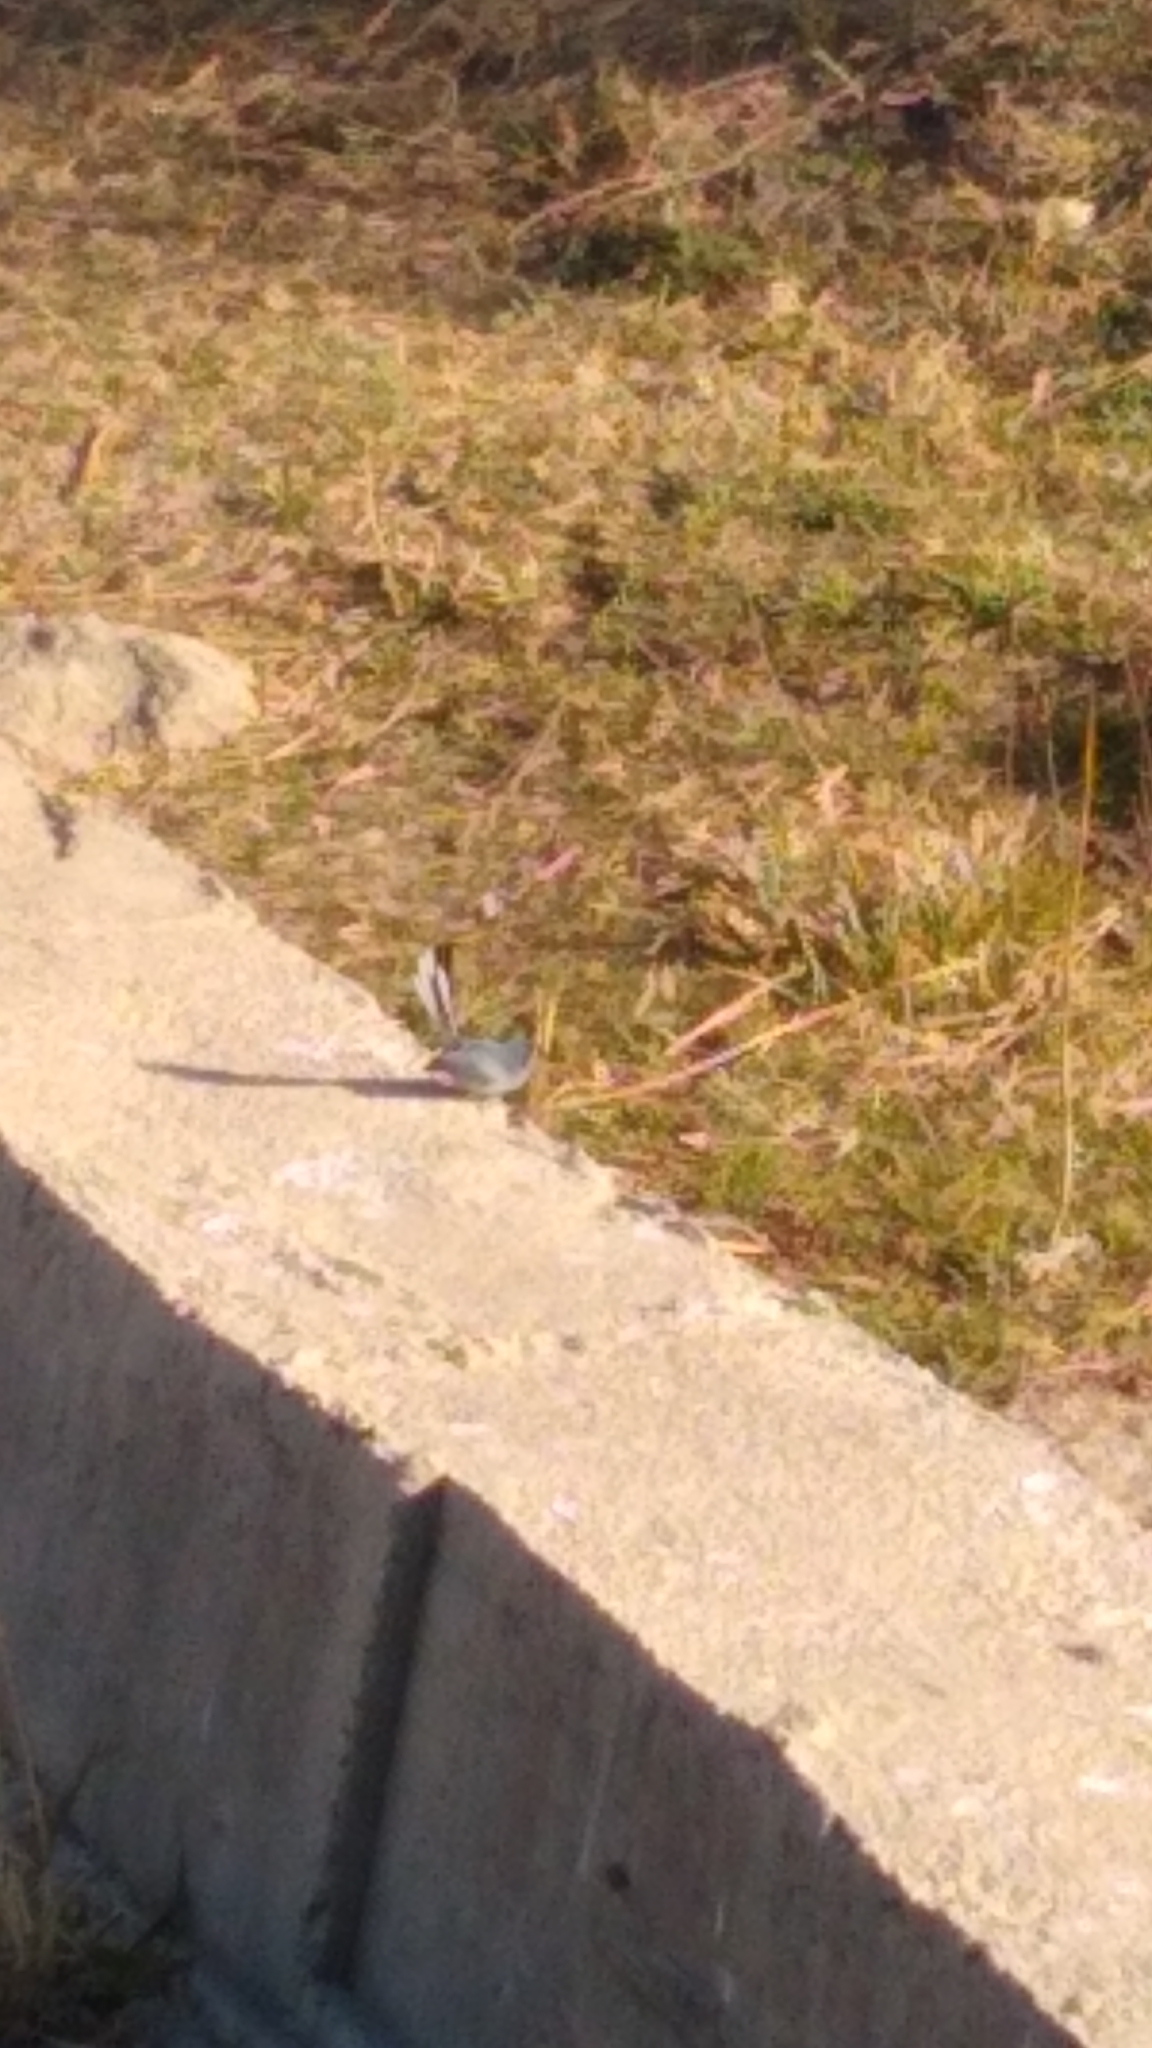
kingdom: Animalia
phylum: Chordata
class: Aves
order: Passeriformes
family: Polioptilidae
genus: Polioptila
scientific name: Polioptila dumicola
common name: Masked gnatcatcher
